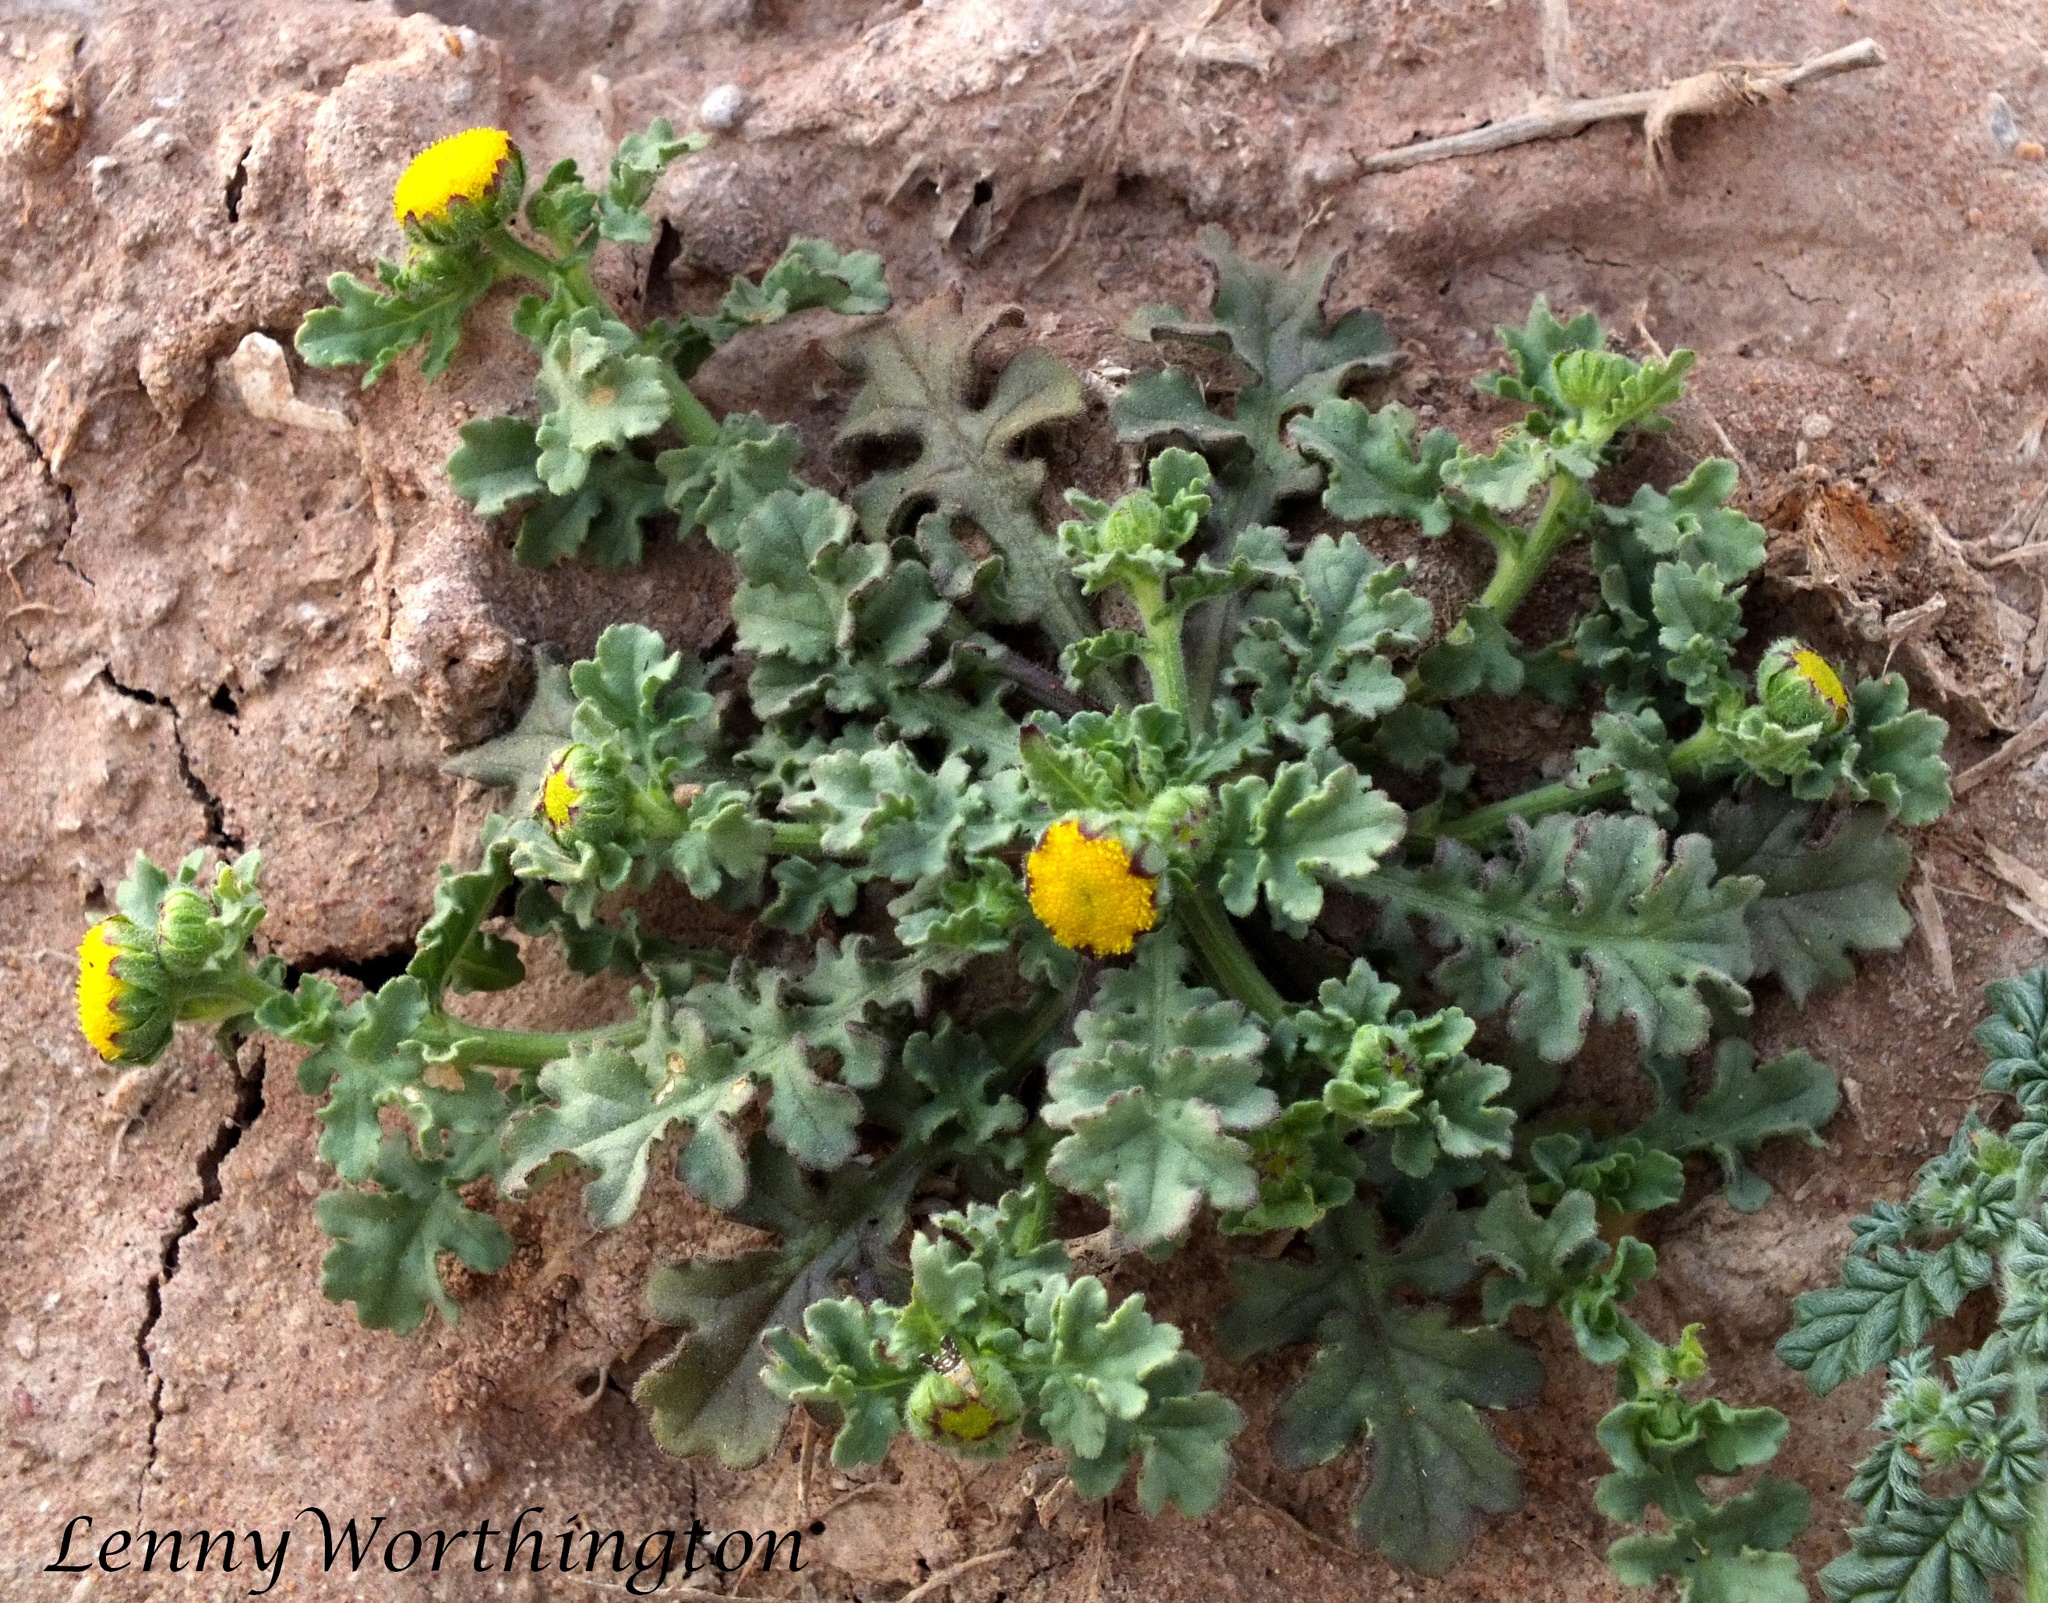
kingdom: Plantae
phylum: Tracheophyta
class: Magnoliopsida
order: Asterales
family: Asteraceae
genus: Grangea
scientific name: Grangea maderaspatana
